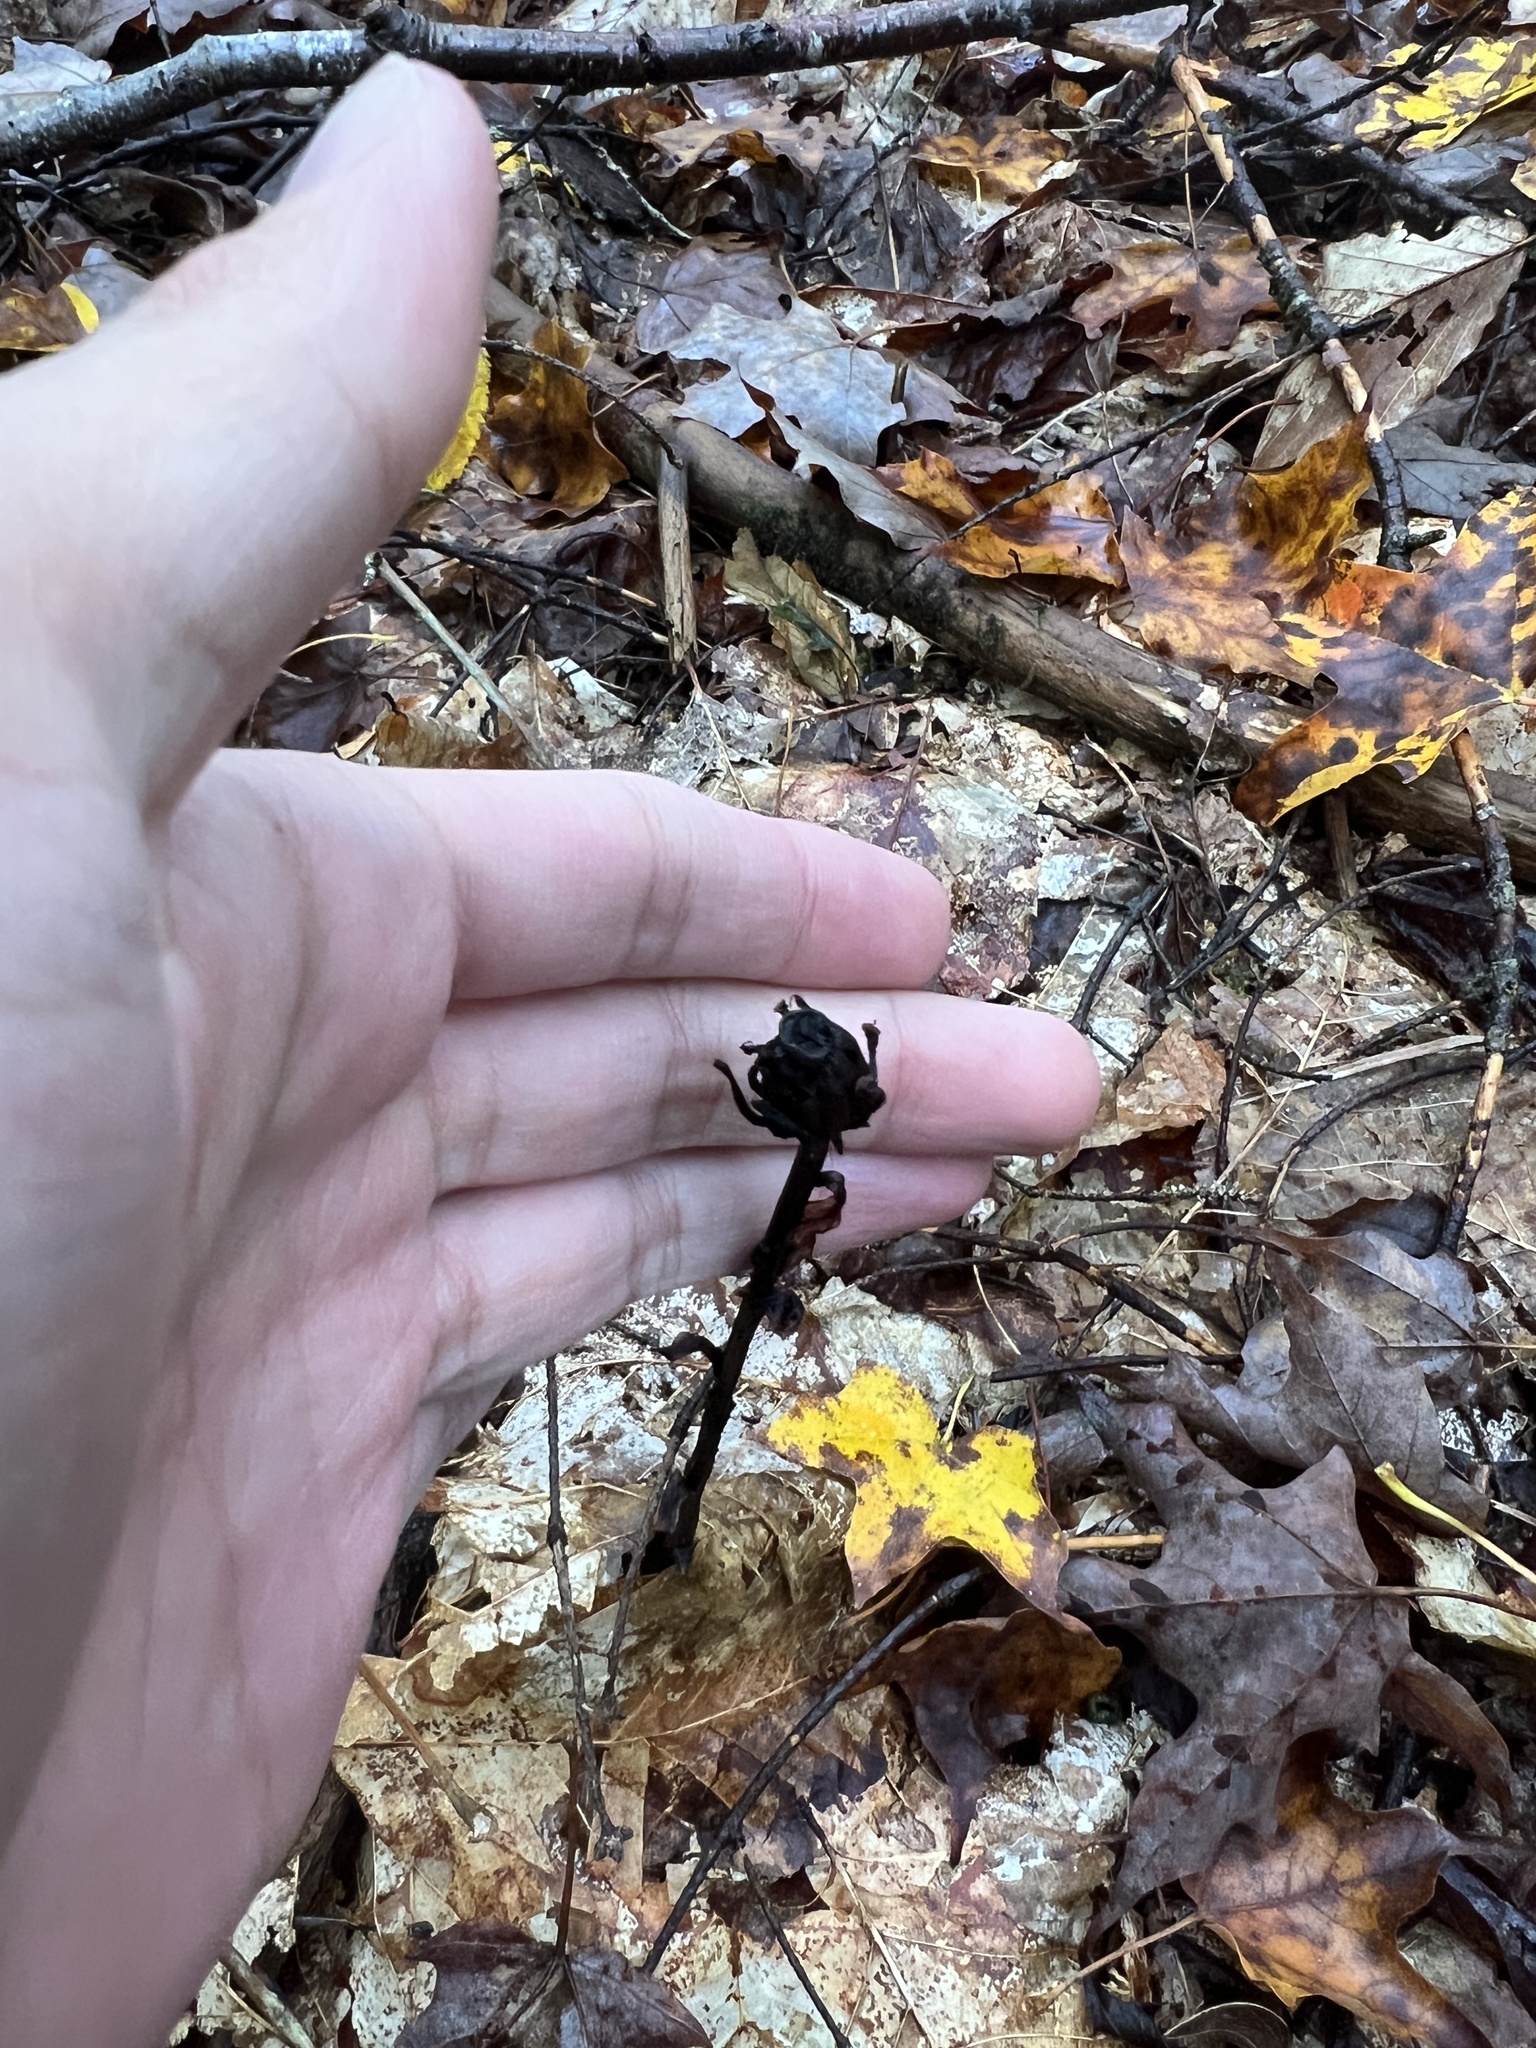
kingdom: Plantae
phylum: Tracheophyta
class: Magnoliopsida
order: Ericales
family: Ericaceae
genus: Monotropa
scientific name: Monotropa uniflora
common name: Convulsion root
